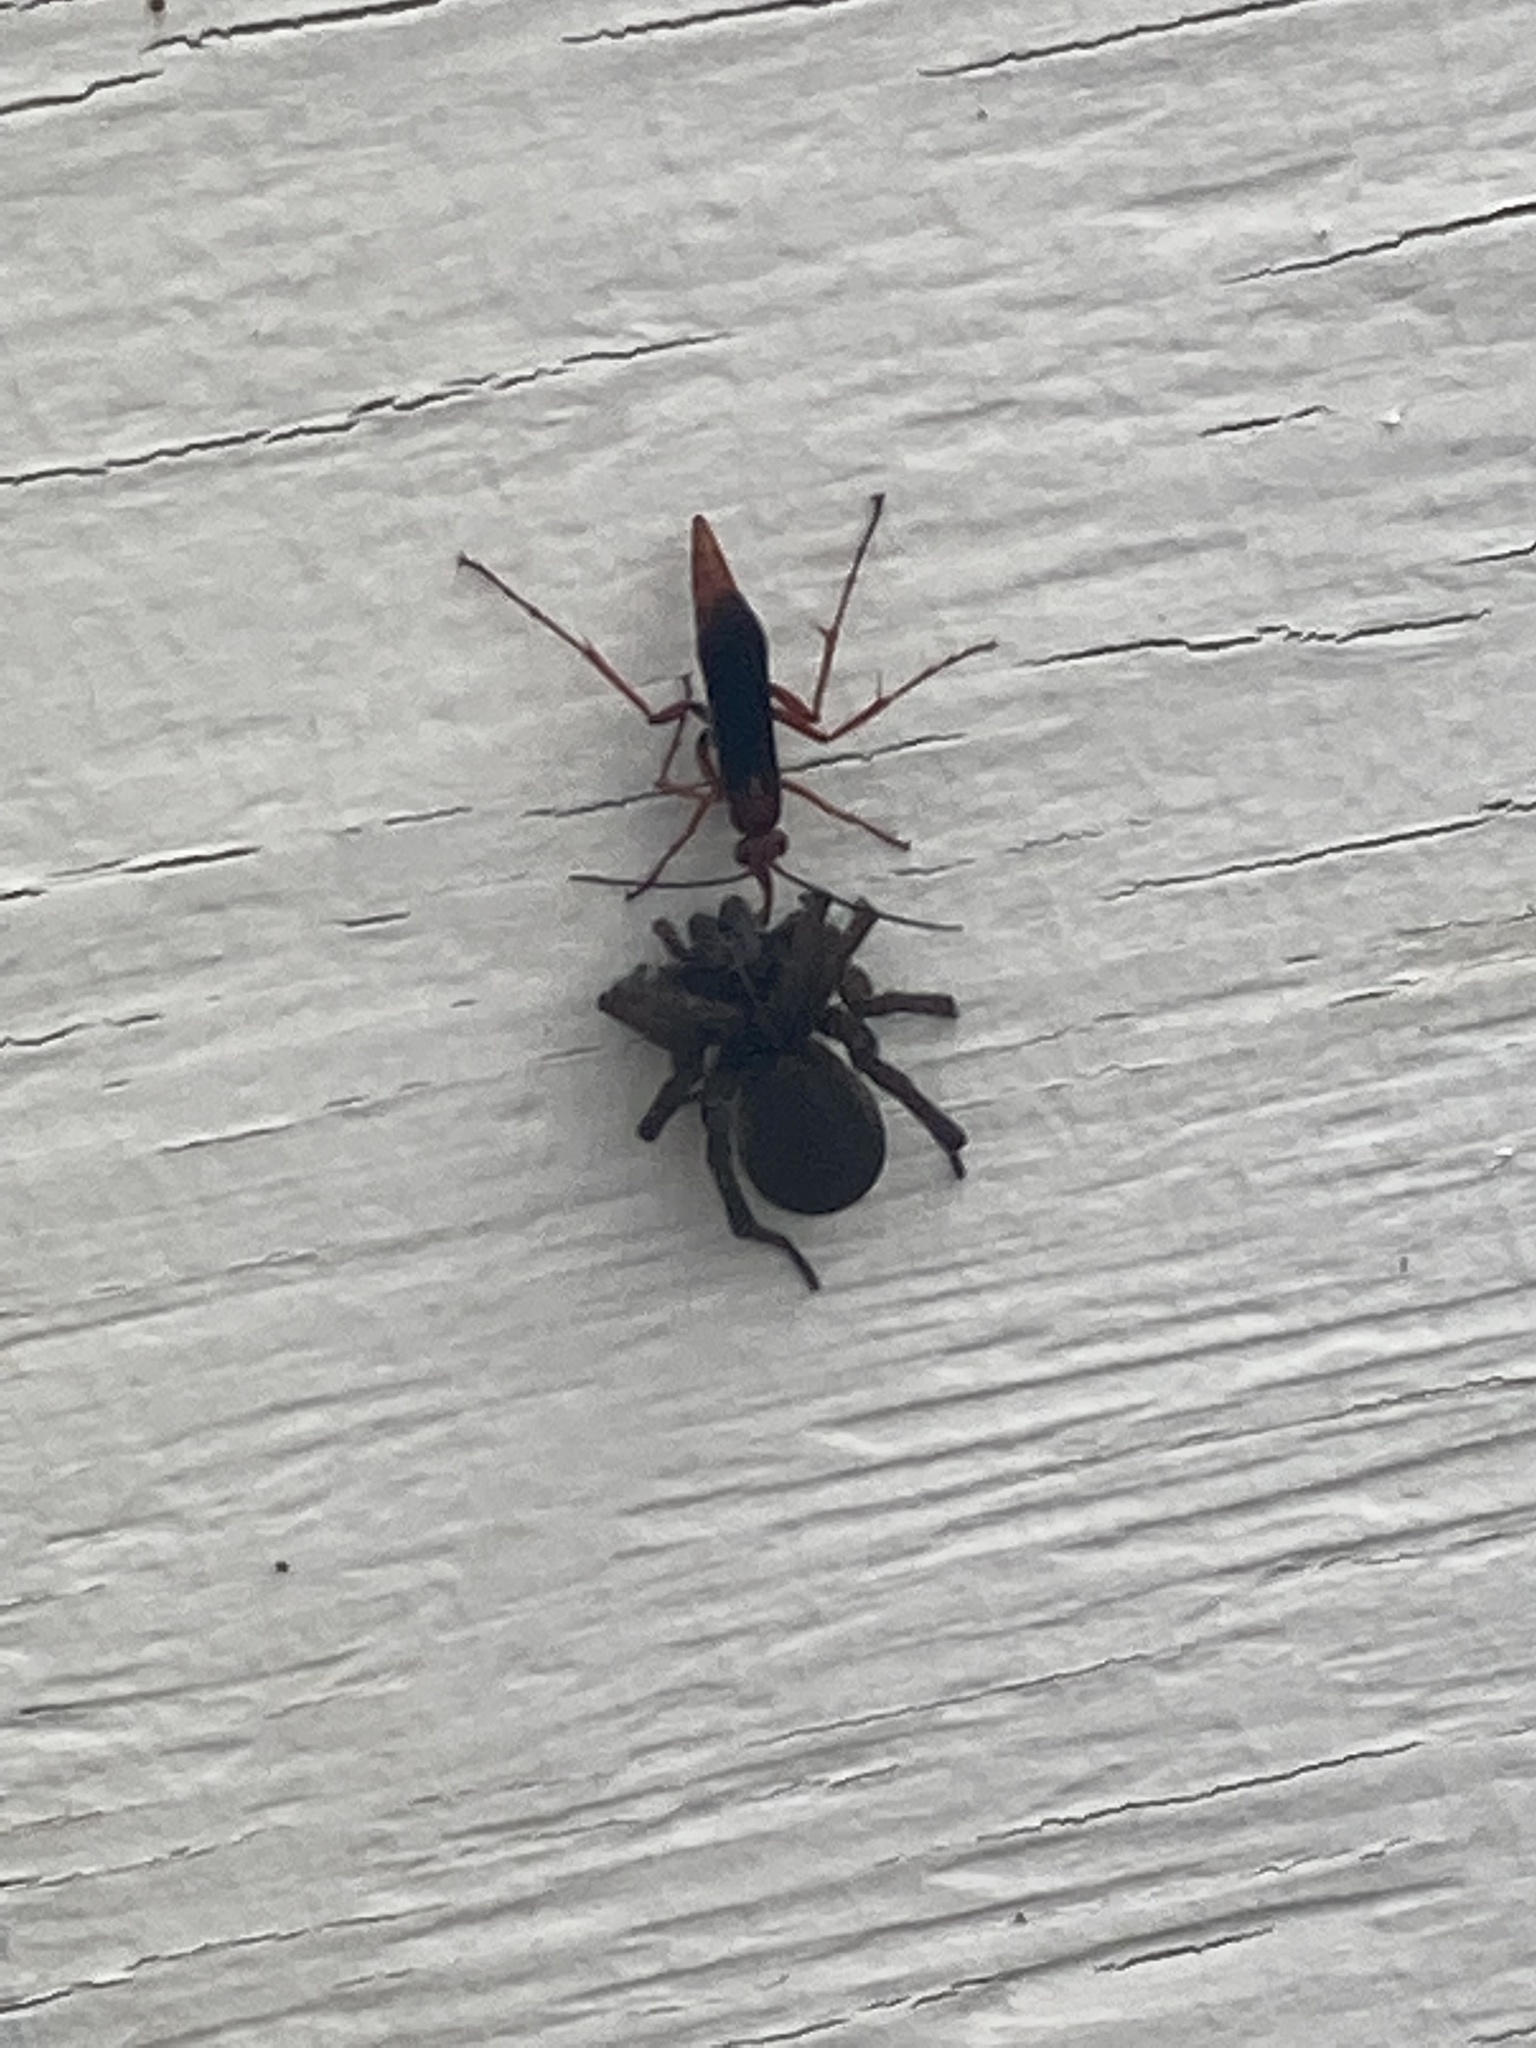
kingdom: Animalia
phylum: Arthropoda
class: Insecta
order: Hymenoptera
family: Pompilidae
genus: Tachypompilus
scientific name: Tachypompilus ferrugineus
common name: Rusty spider wasp
